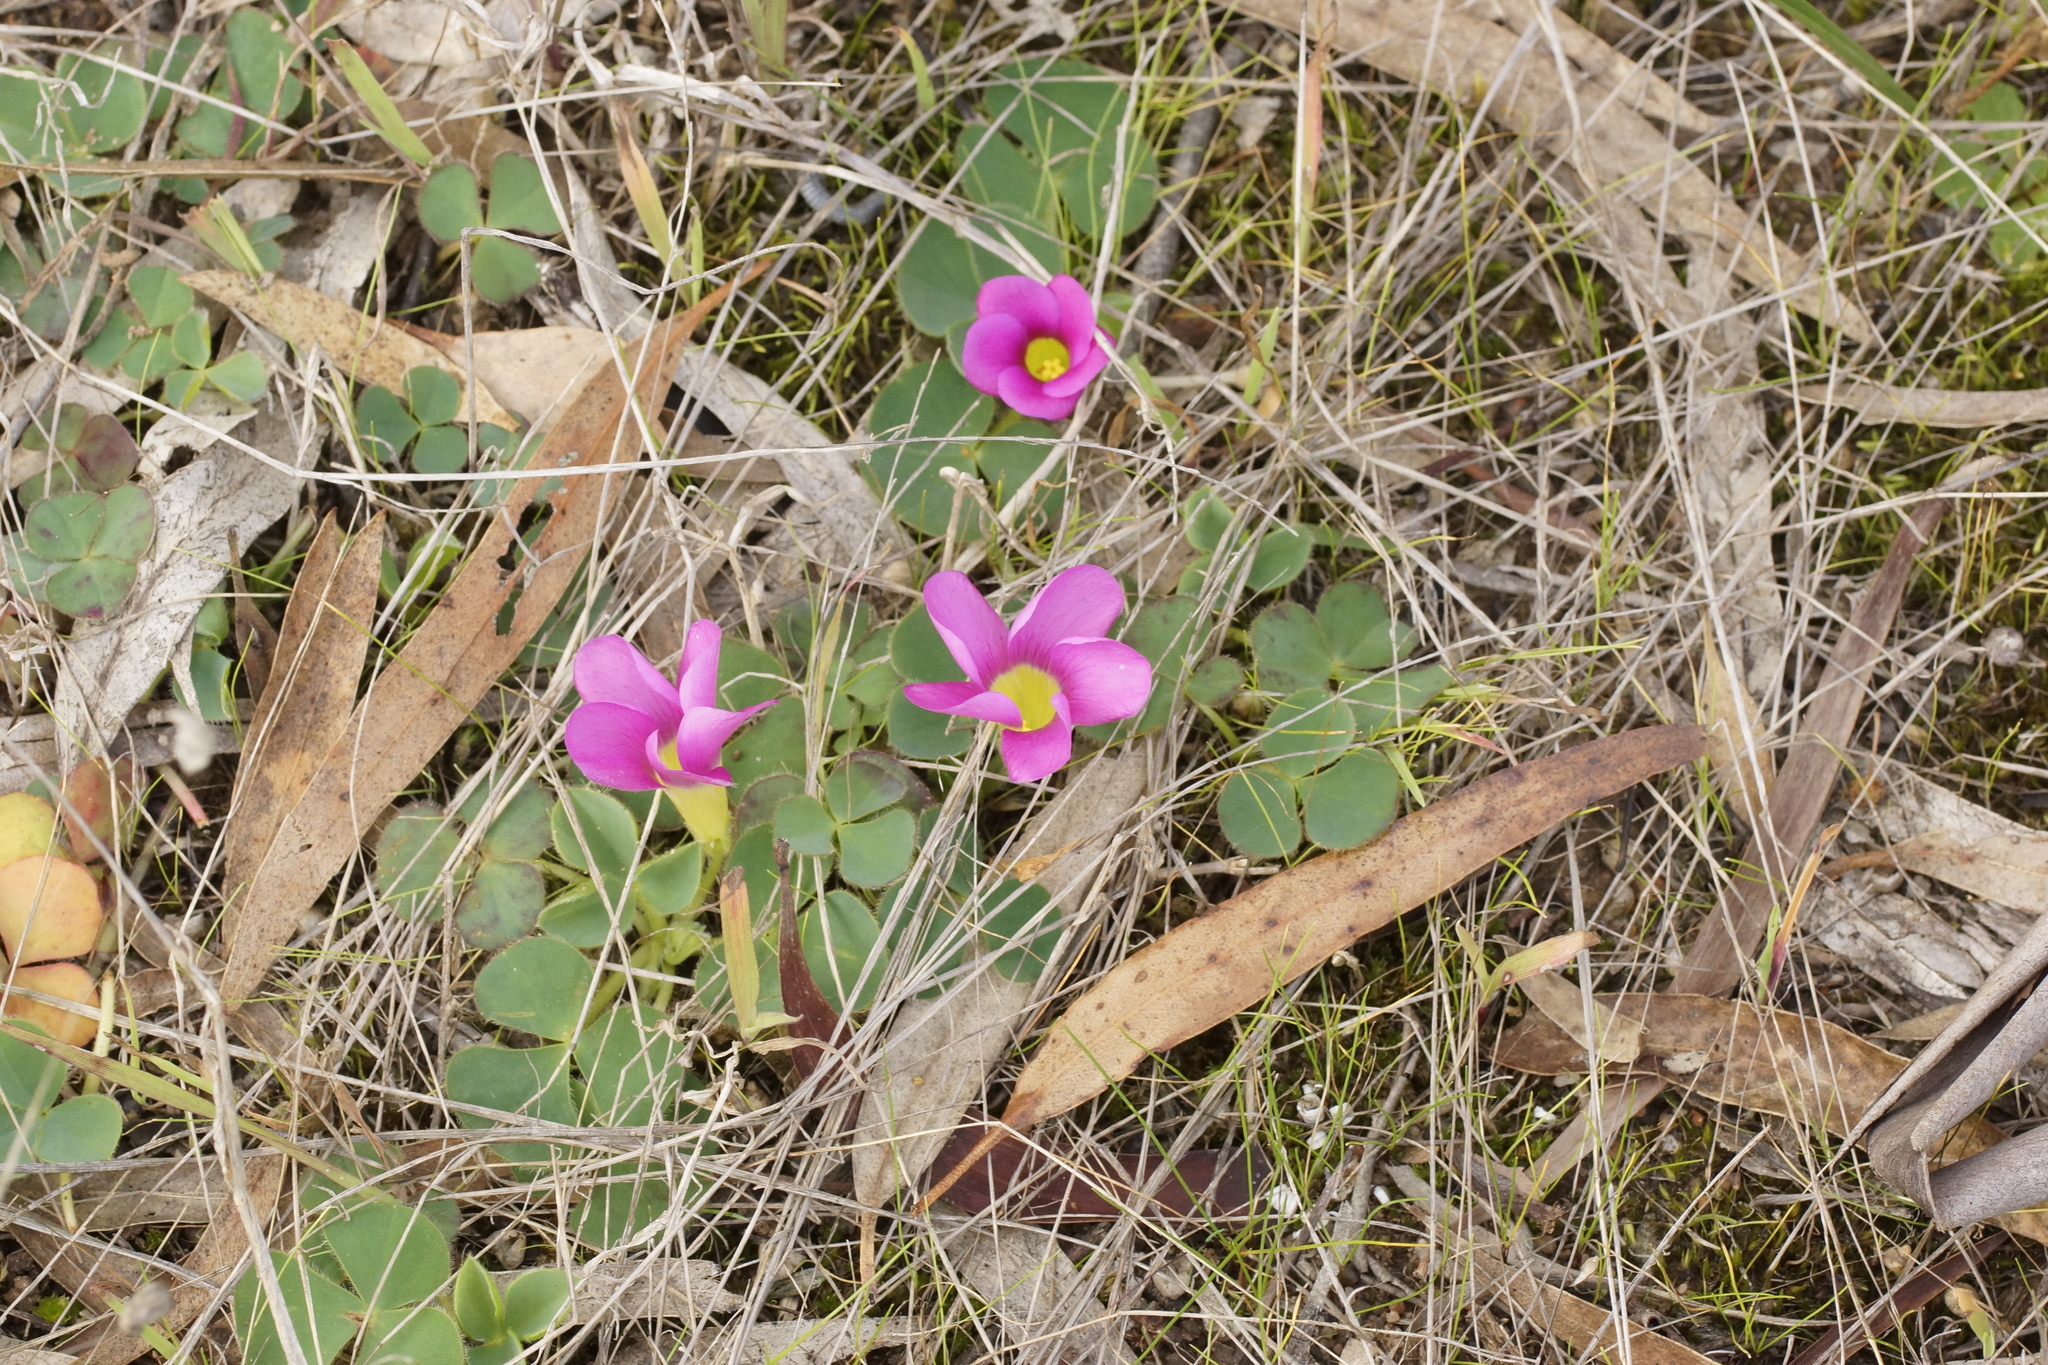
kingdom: Plantae
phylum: Tracheophyta
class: Magnoliopsida
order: Oxalidales
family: Oxalidaceae
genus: Oxalis
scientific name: Oxalis purpurea
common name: Purple woodsorrel
